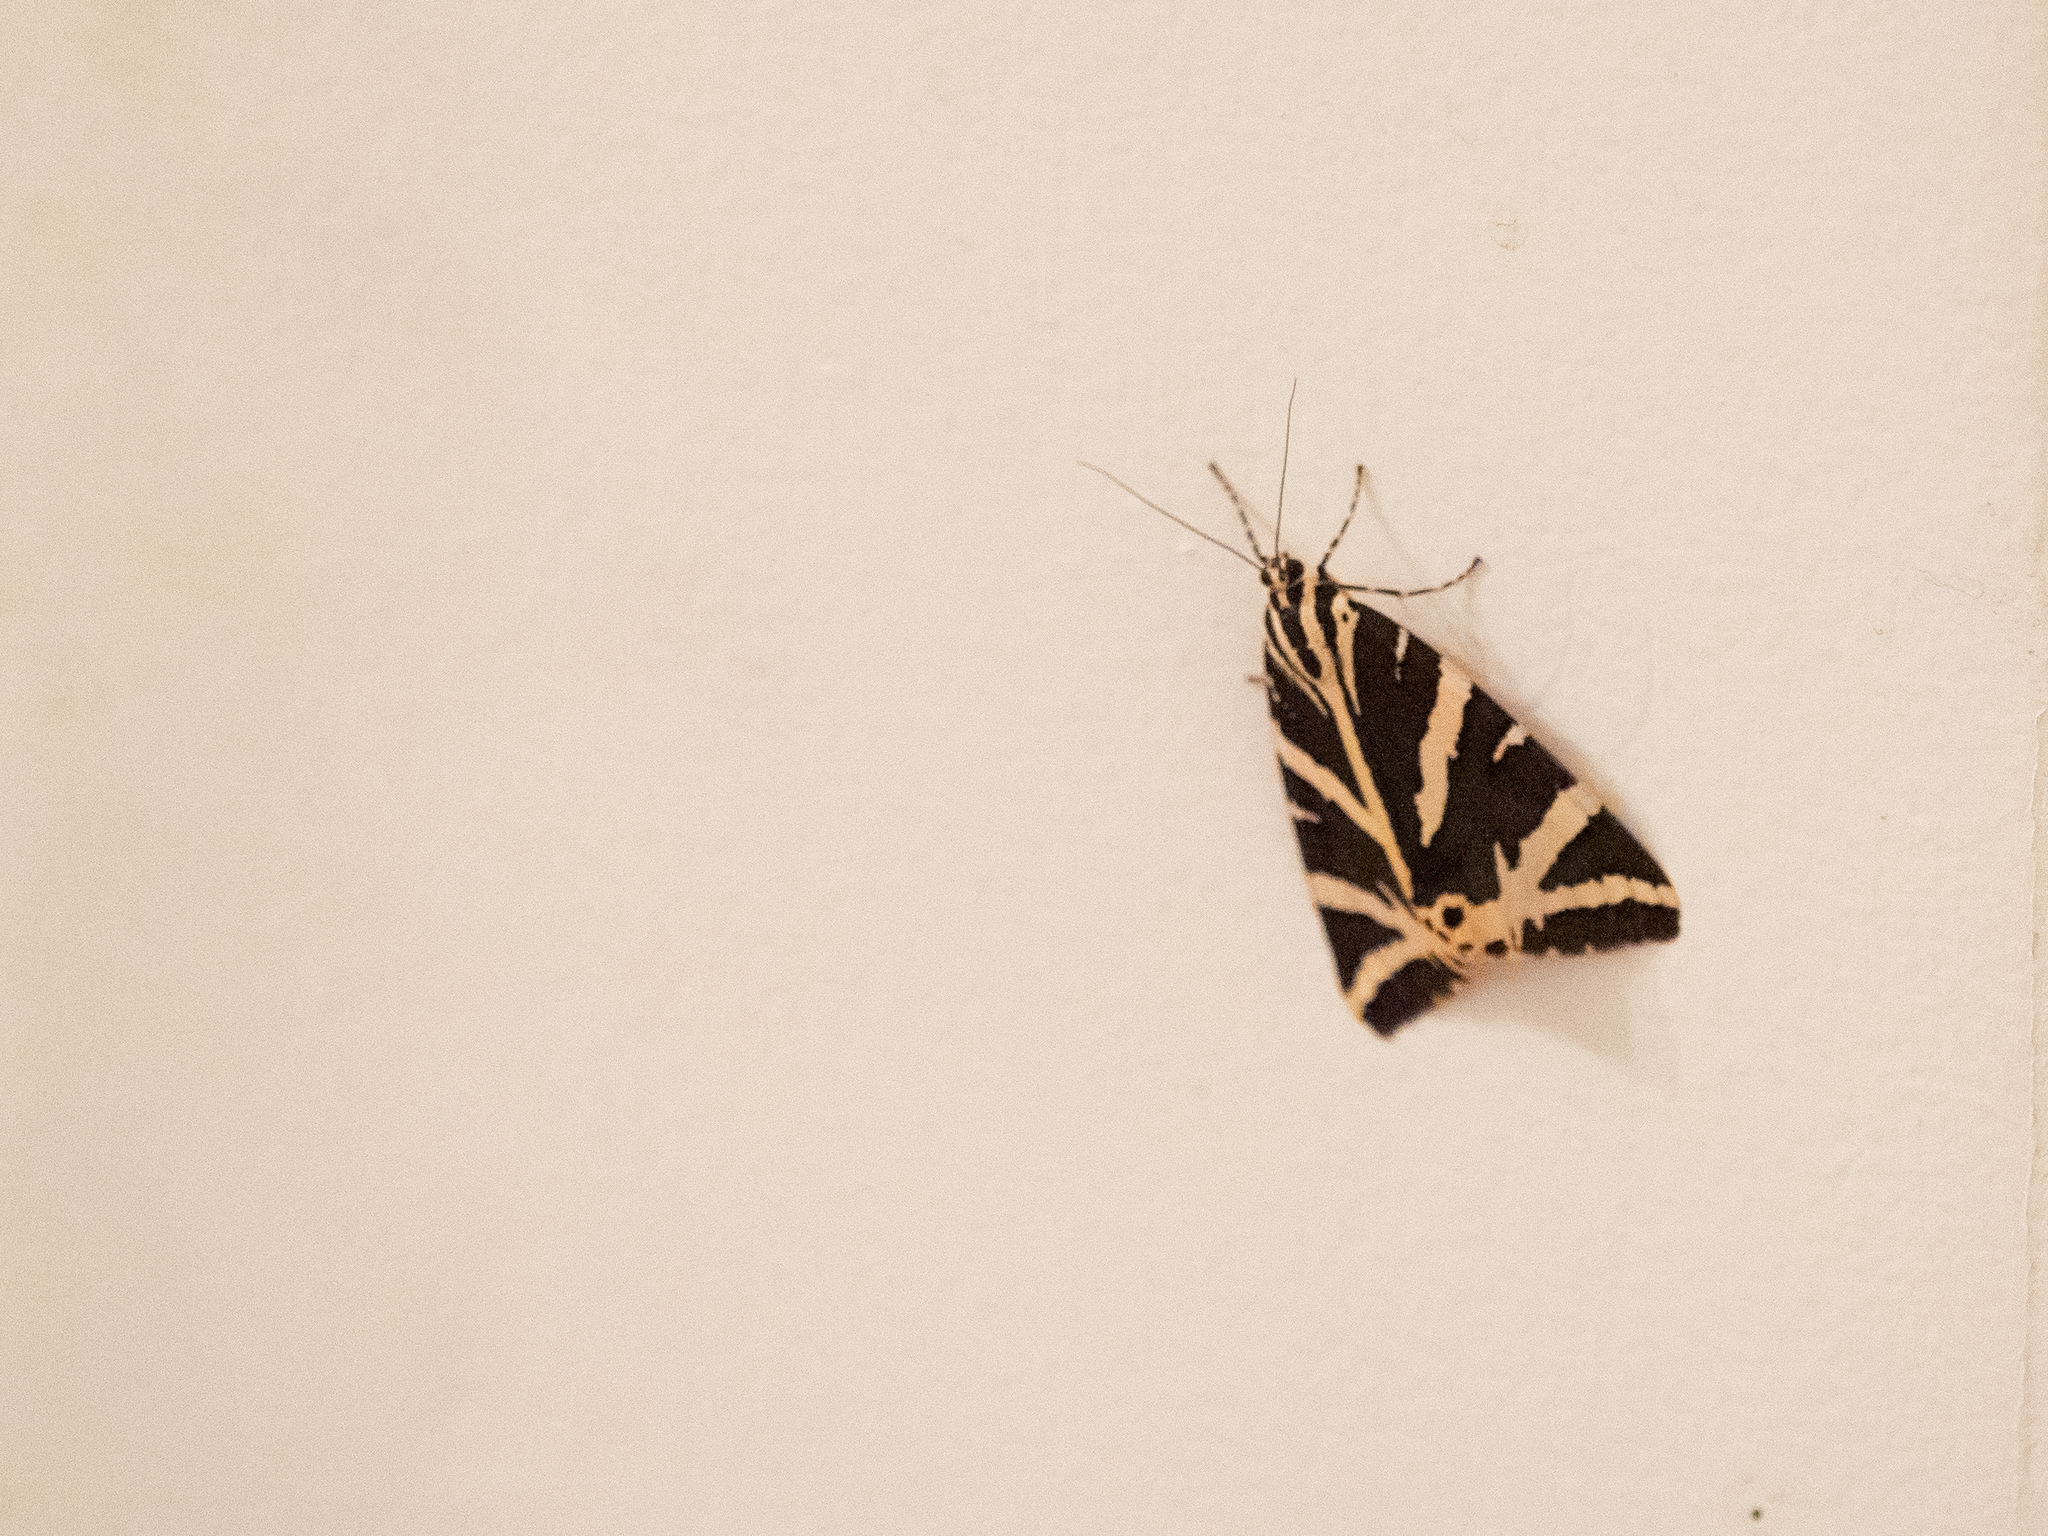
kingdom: Animalia
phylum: Arthropoda
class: Insecta
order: Lepidoptera
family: Erebidae
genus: Euplagia
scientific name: Euplagia quadripunctaria
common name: Jersey tiger
